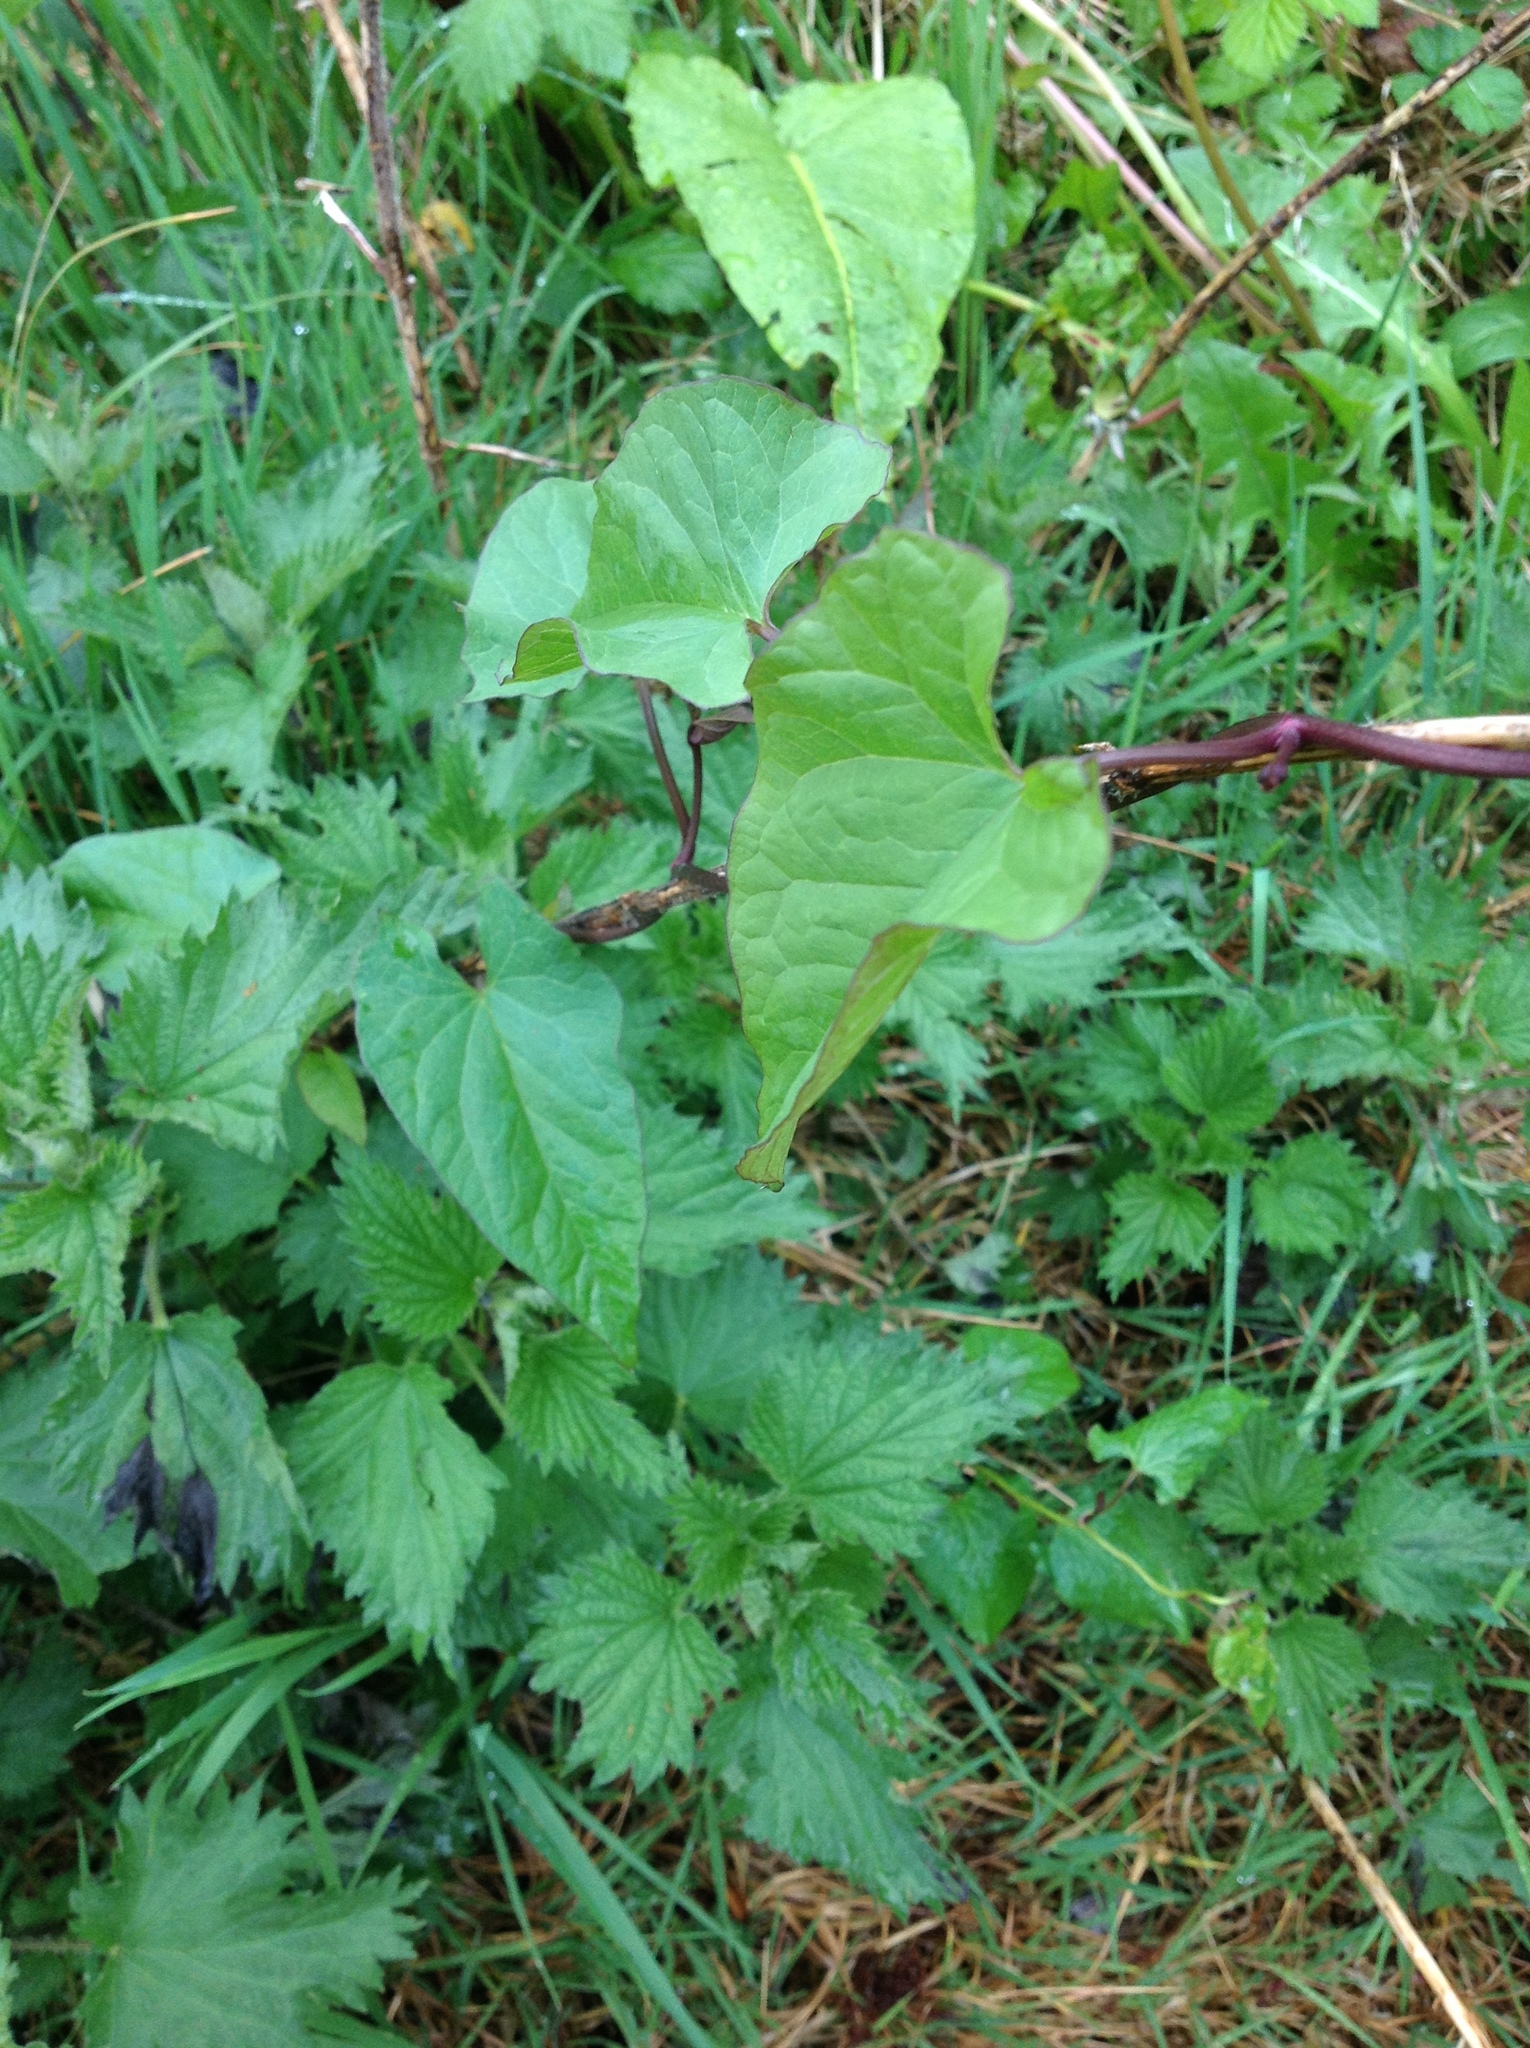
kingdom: Plantae
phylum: Tracheophyta
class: Magnoliopsida
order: Solanales
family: Convolvulaceae
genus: Calystegia
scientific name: Calystegia
